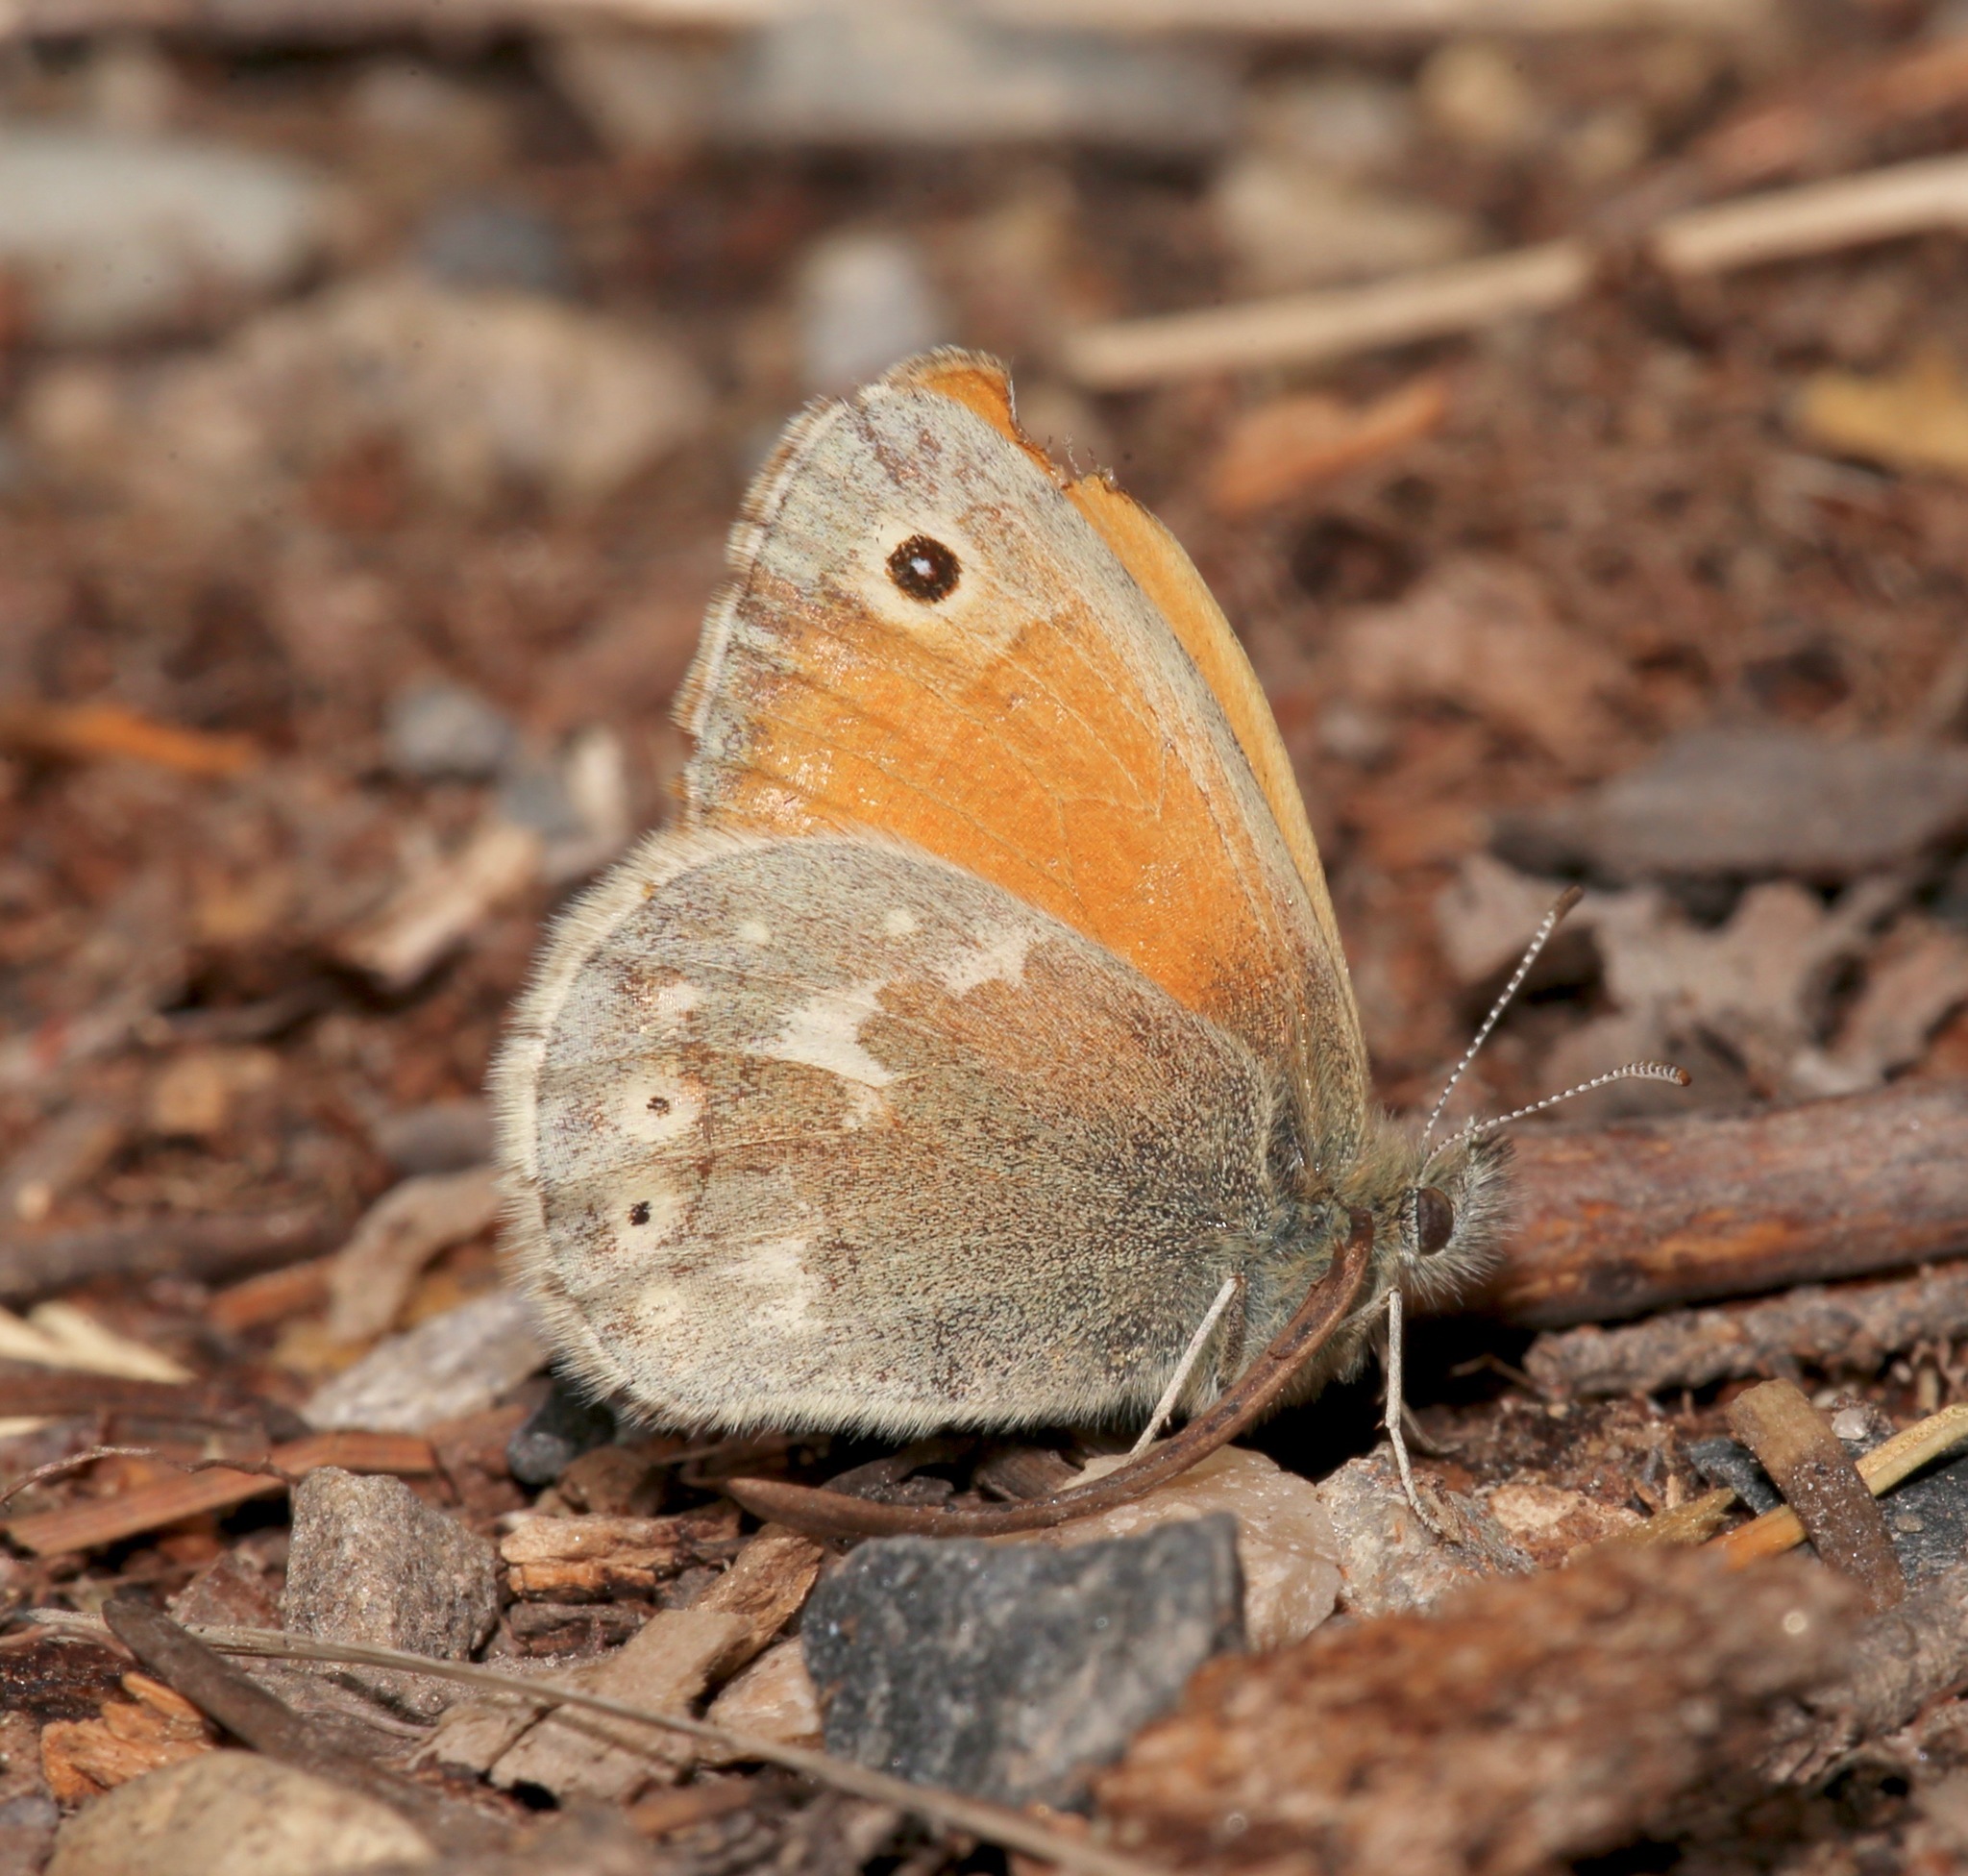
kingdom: Animalia
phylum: Arthropoda
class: Insecta
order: Lepidoptera
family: Nymphalidae
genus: Coenonympha
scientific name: Coenonympha california
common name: Common ringlet
